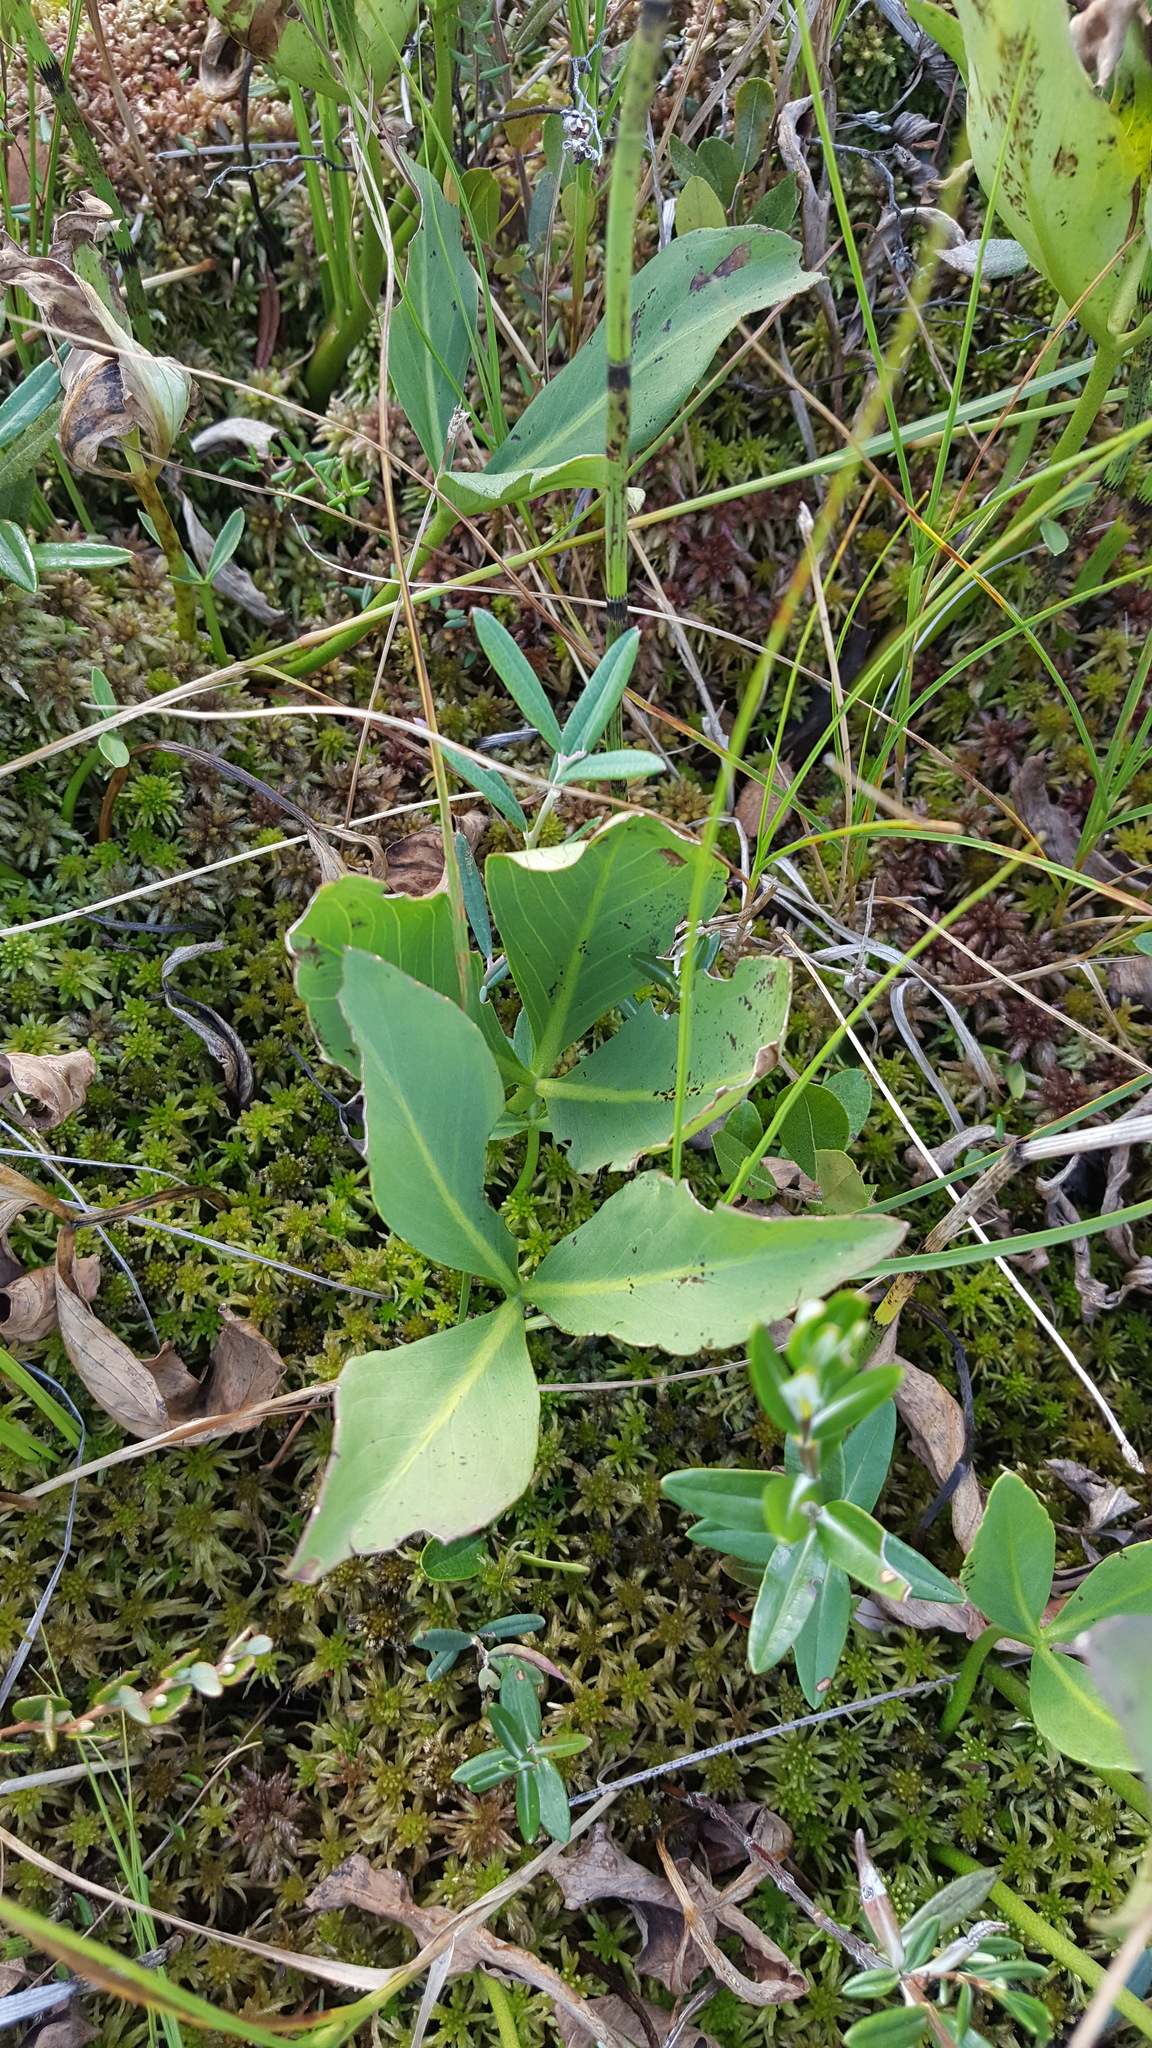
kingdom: Plantae
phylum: Tracheophyta
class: Magnoliopsida
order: Asterales
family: Menyanthaceae
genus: Menyanthes
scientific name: Menyanthes trifoliata
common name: Bogbean
